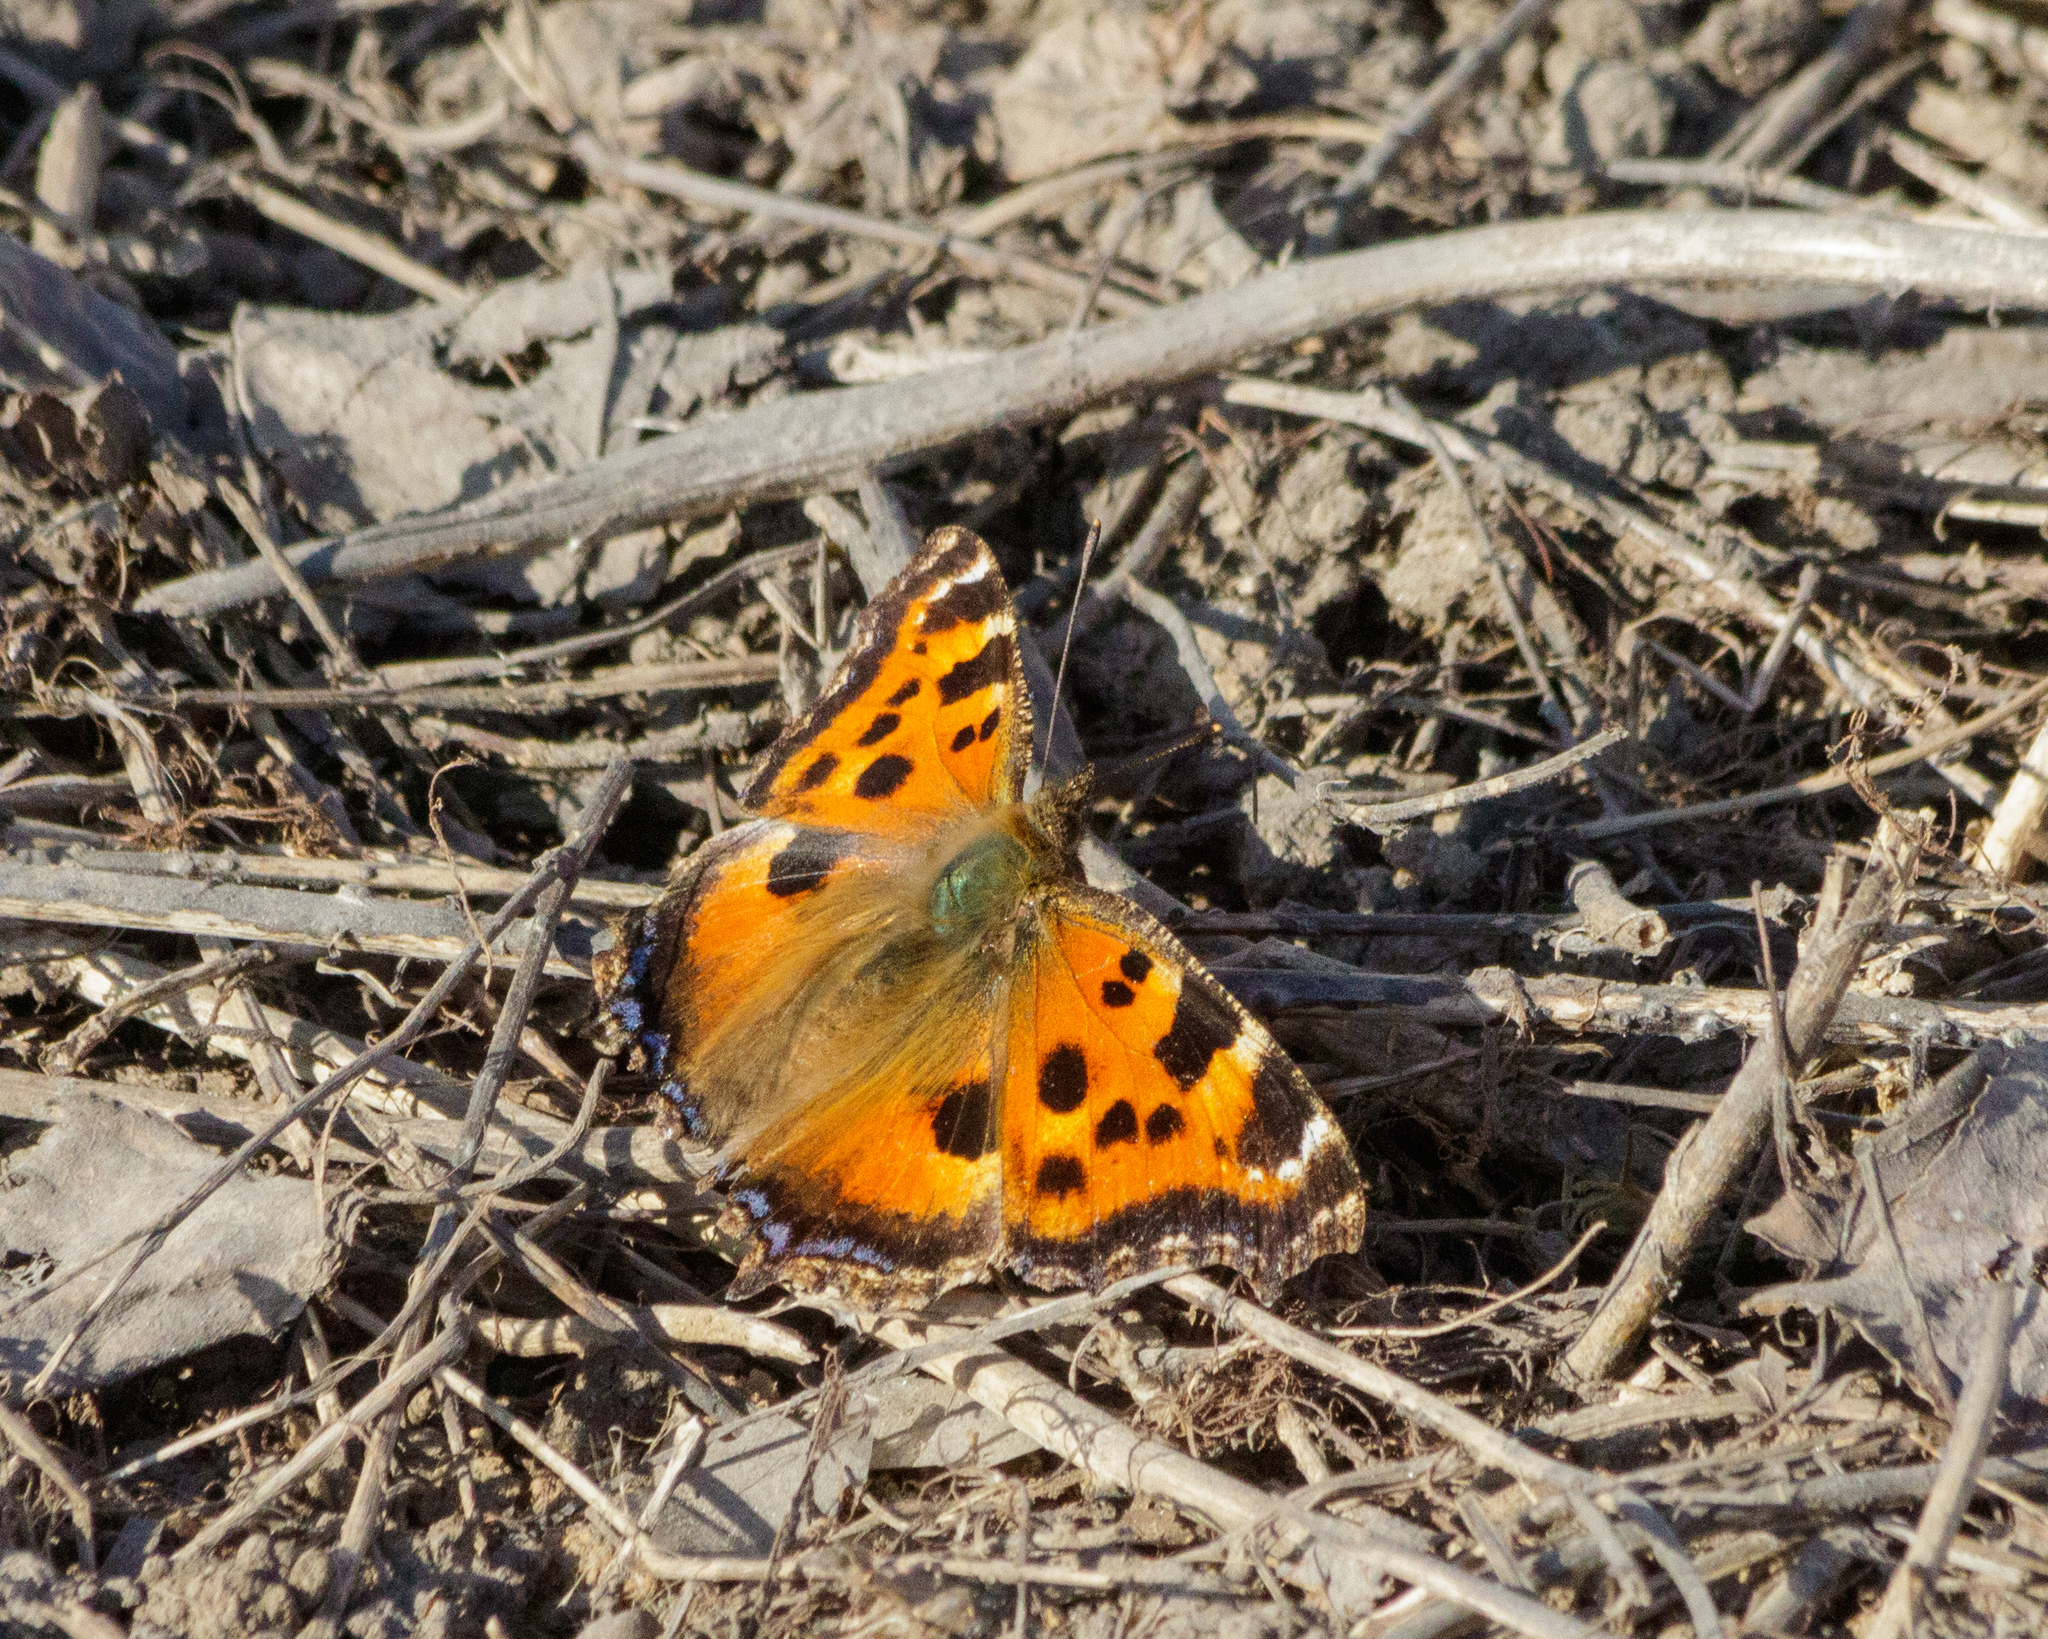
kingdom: Animalia
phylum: Arthropoda
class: Insecta
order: Lepidoptera
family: Nymphalidae
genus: Nymphalis
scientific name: Nymphalis xanthomelas
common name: Scarce tortoiseshell
